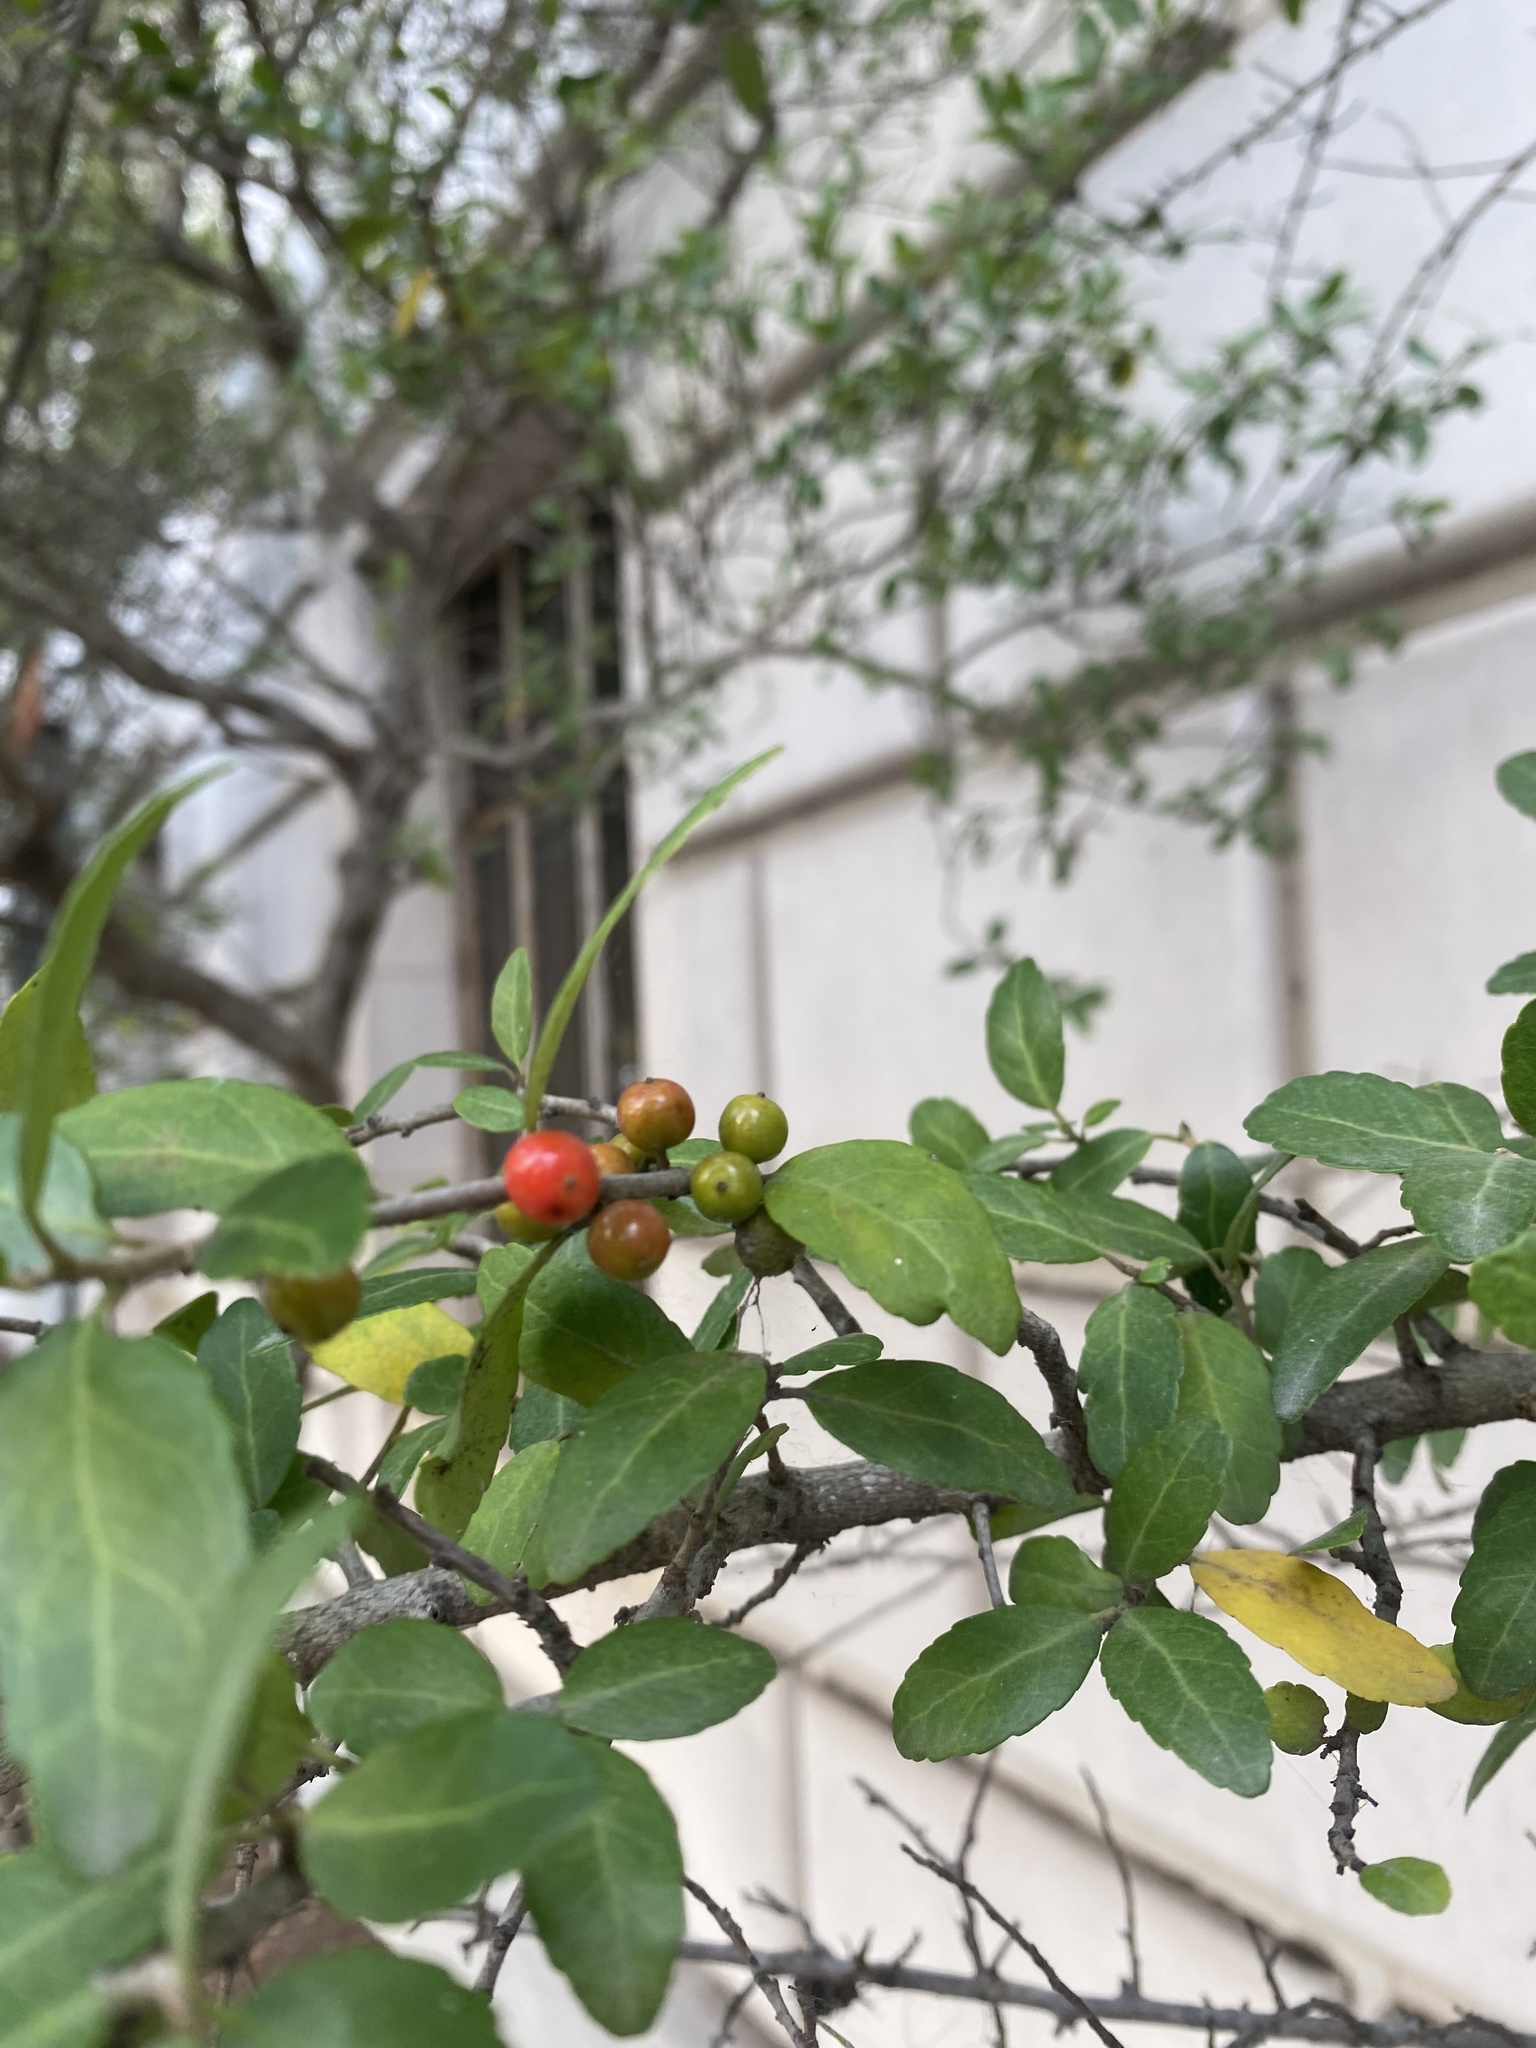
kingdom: Plantae
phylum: Tracheophyta
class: Magnoliopsida
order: Aquifoliales
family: Aquifoliaceae
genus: Ilex
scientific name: Ilex vomitoria
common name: Yaupon holly
